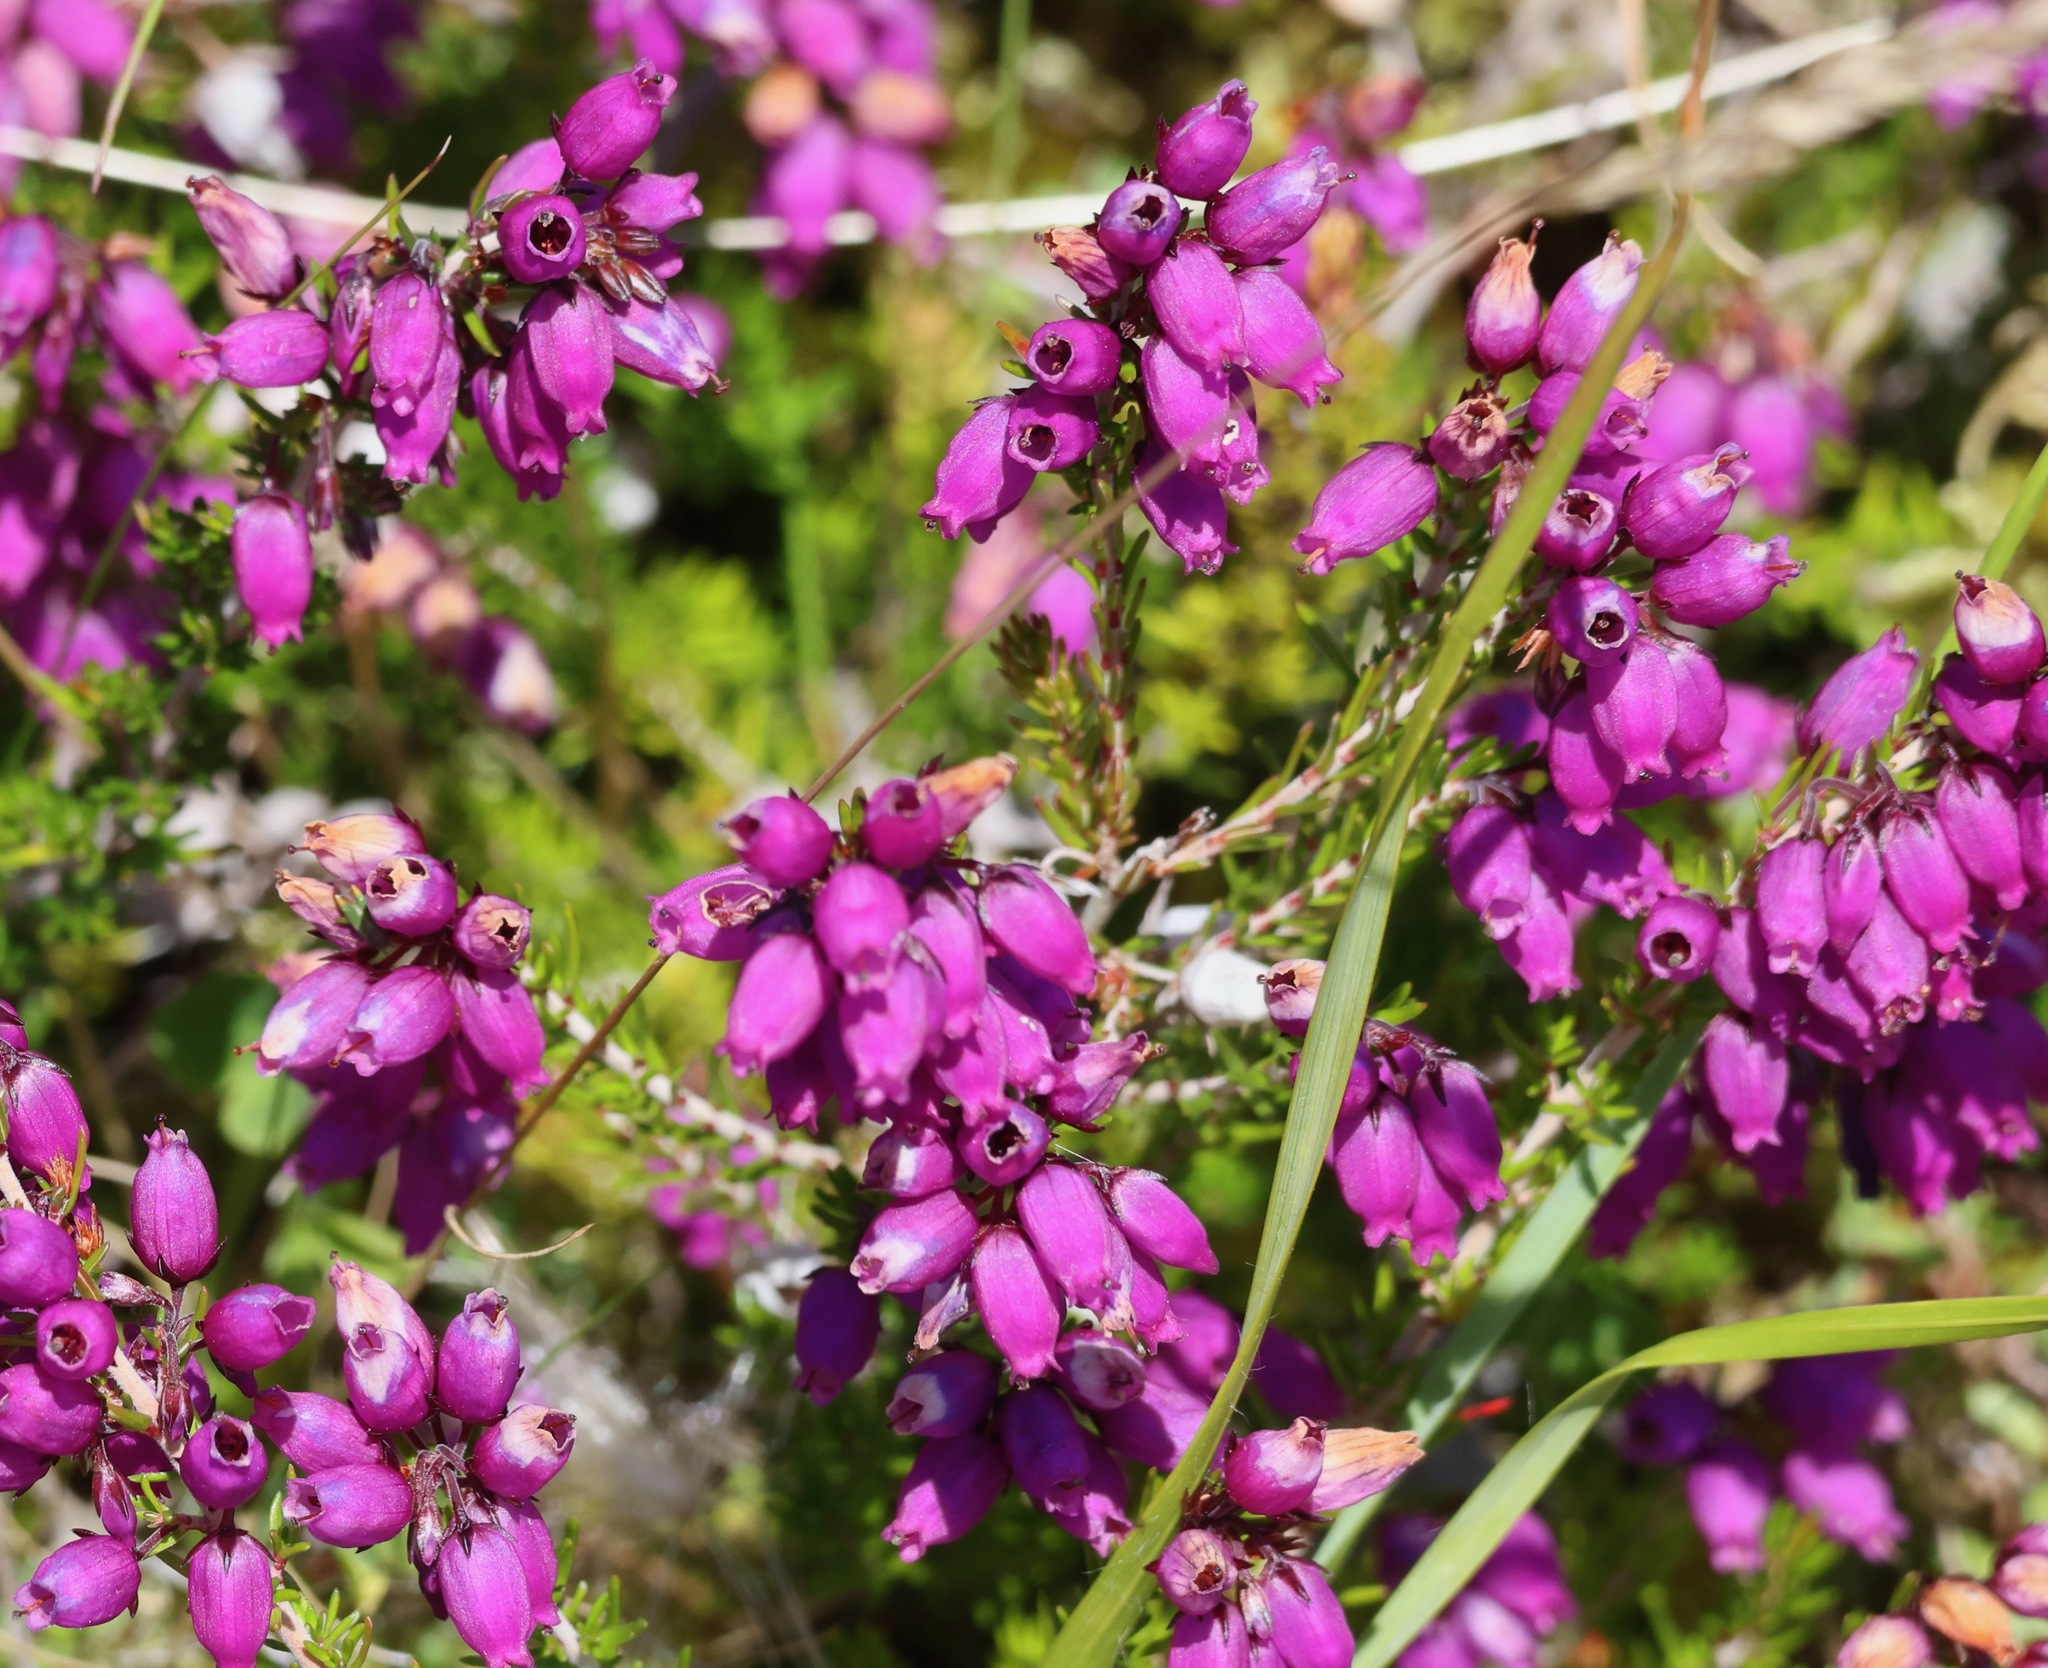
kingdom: Plantae
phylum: Tracheophyta
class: Magnoliopsida
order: Ericales
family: Ericaceae
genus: Erica
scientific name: Erica cinerea
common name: Bell heather
